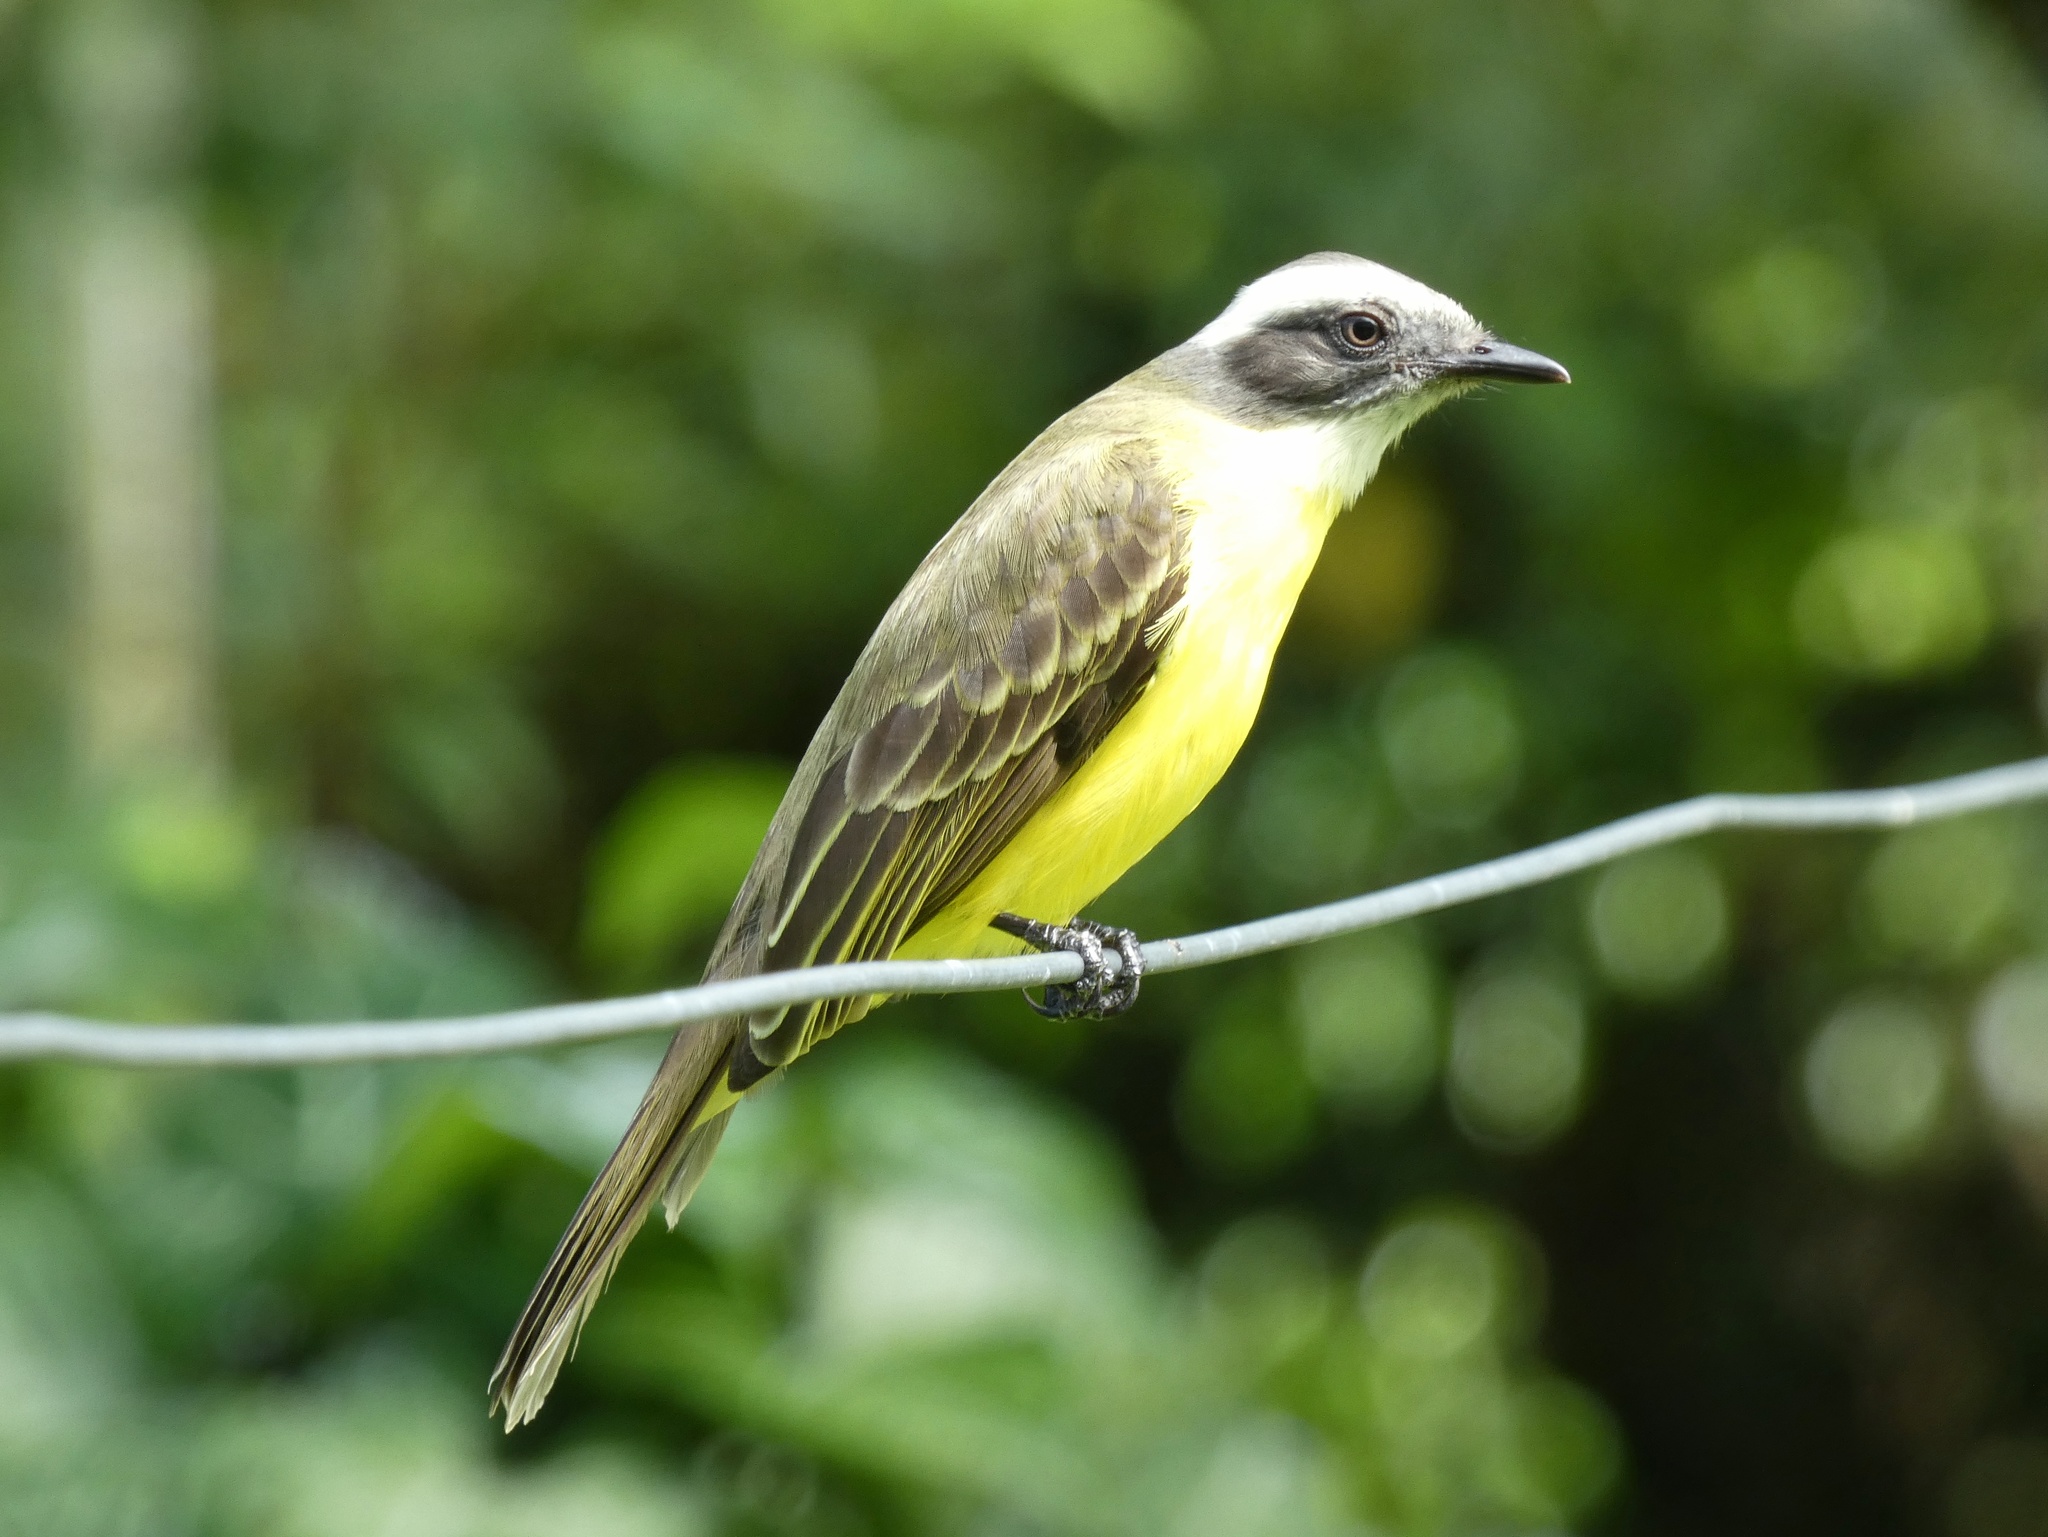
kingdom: Animalia
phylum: Chordata
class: Aves
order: Passeriformes
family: Tyrannidae
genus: Myiozetetes
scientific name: Myiozetetes similis
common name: Social flycatcher
